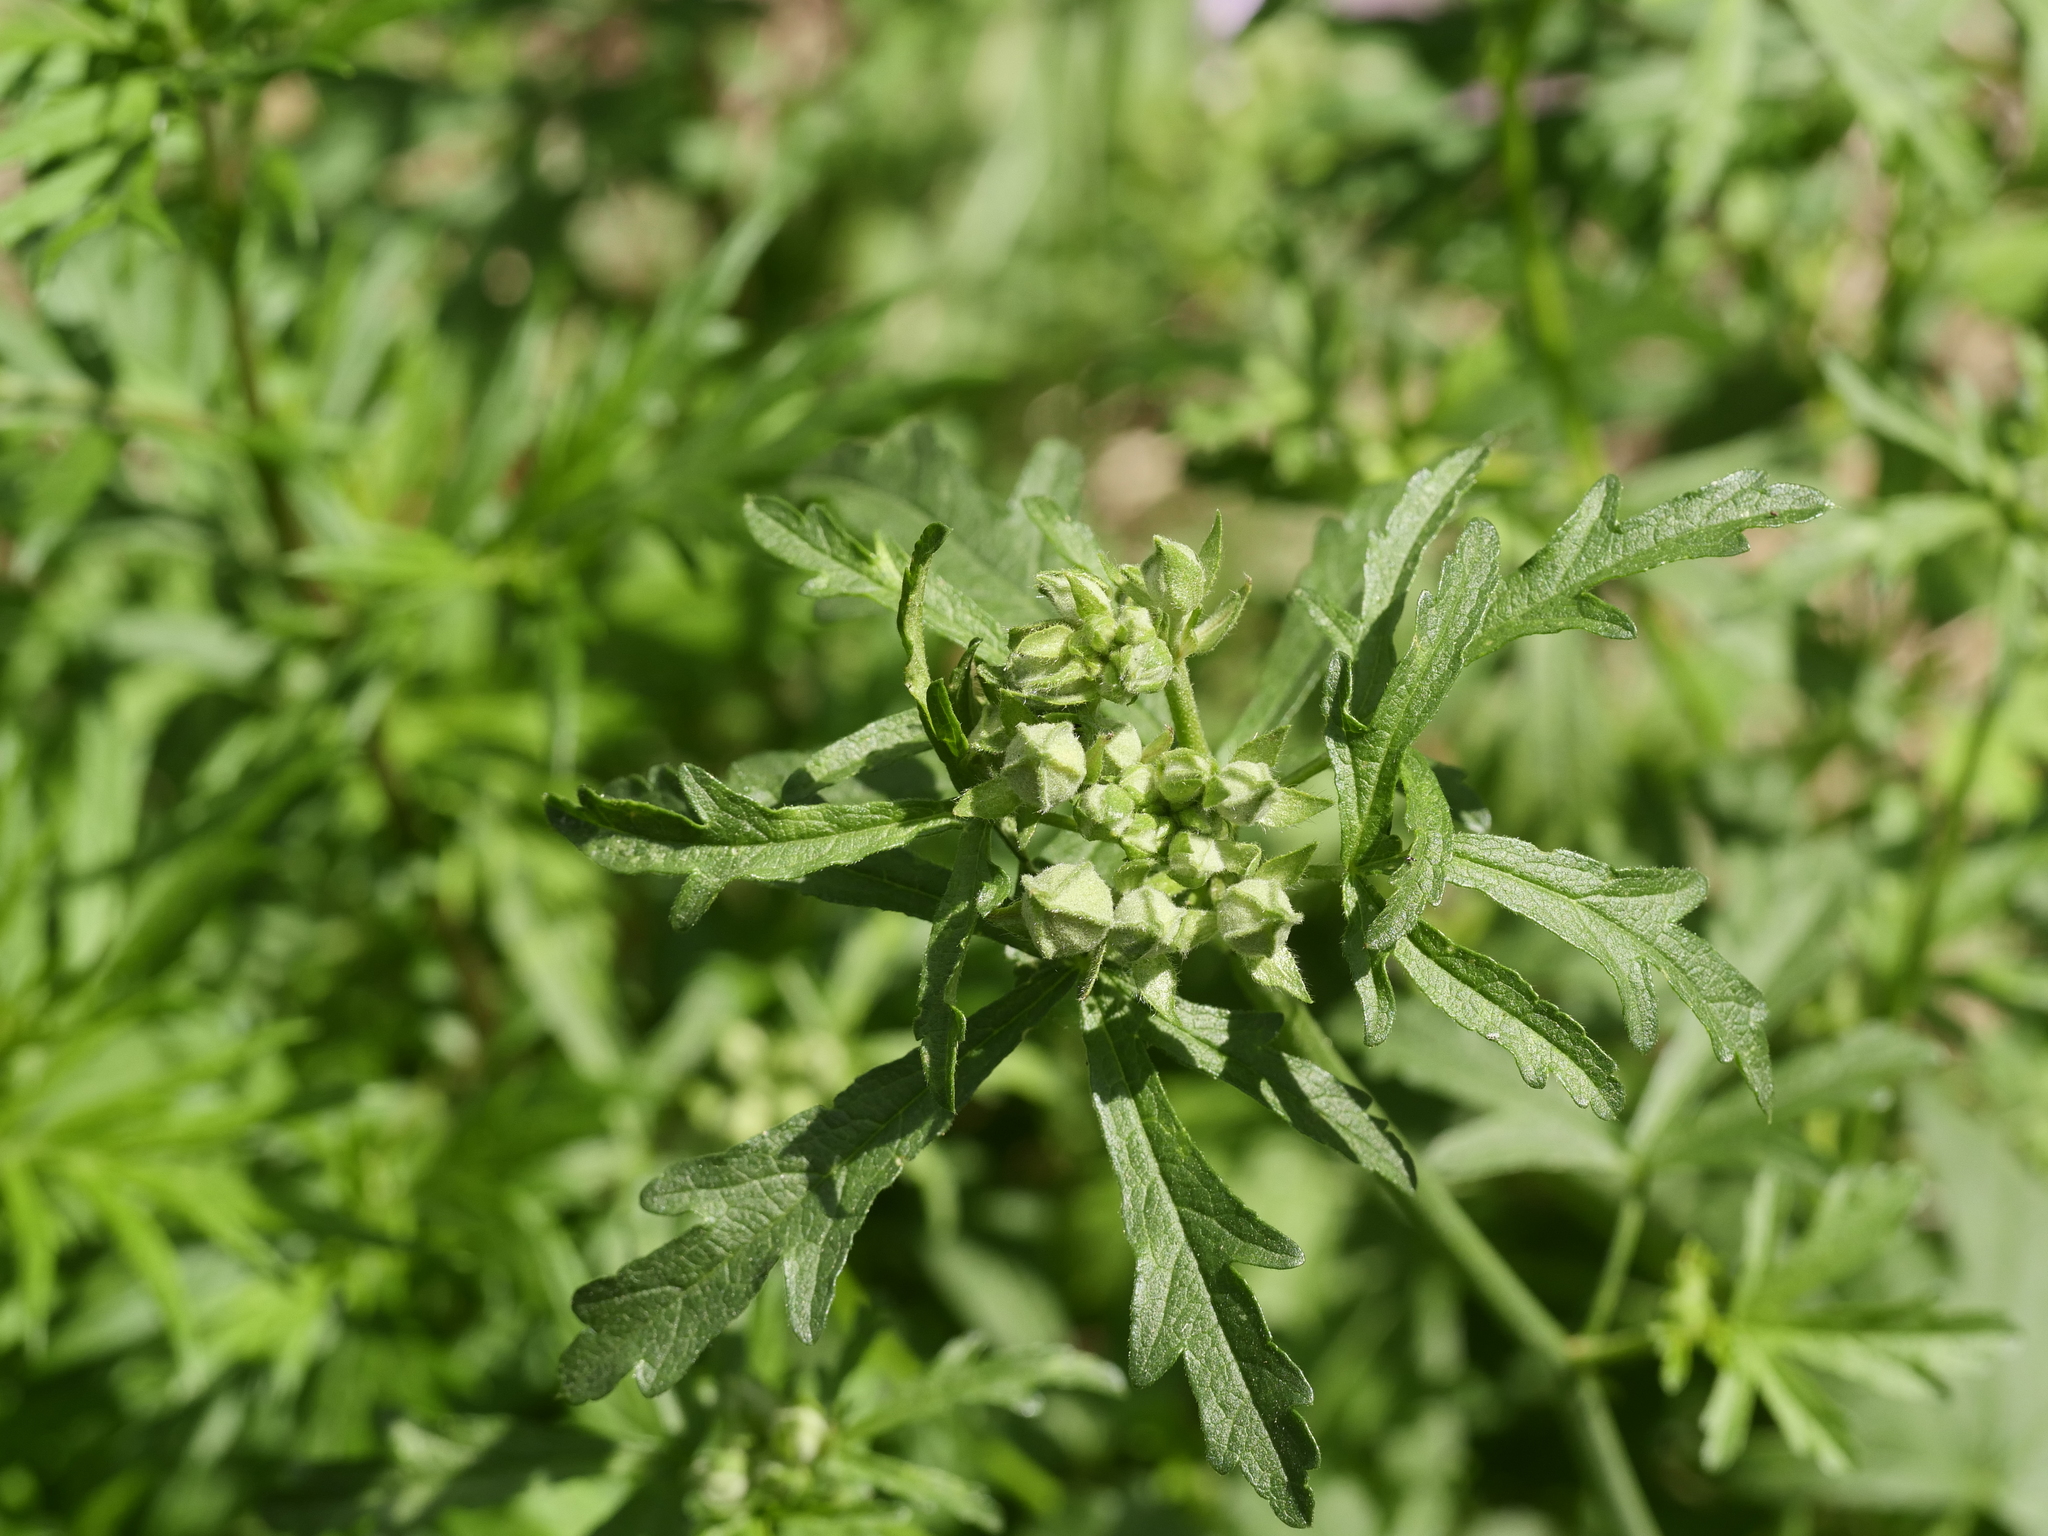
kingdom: Plantae
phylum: Tracheophyta
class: Magnoliopsida
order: Malvales
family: Malvaceae
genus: Malva
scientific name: Malva alcea
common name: Greater musk-mallow
